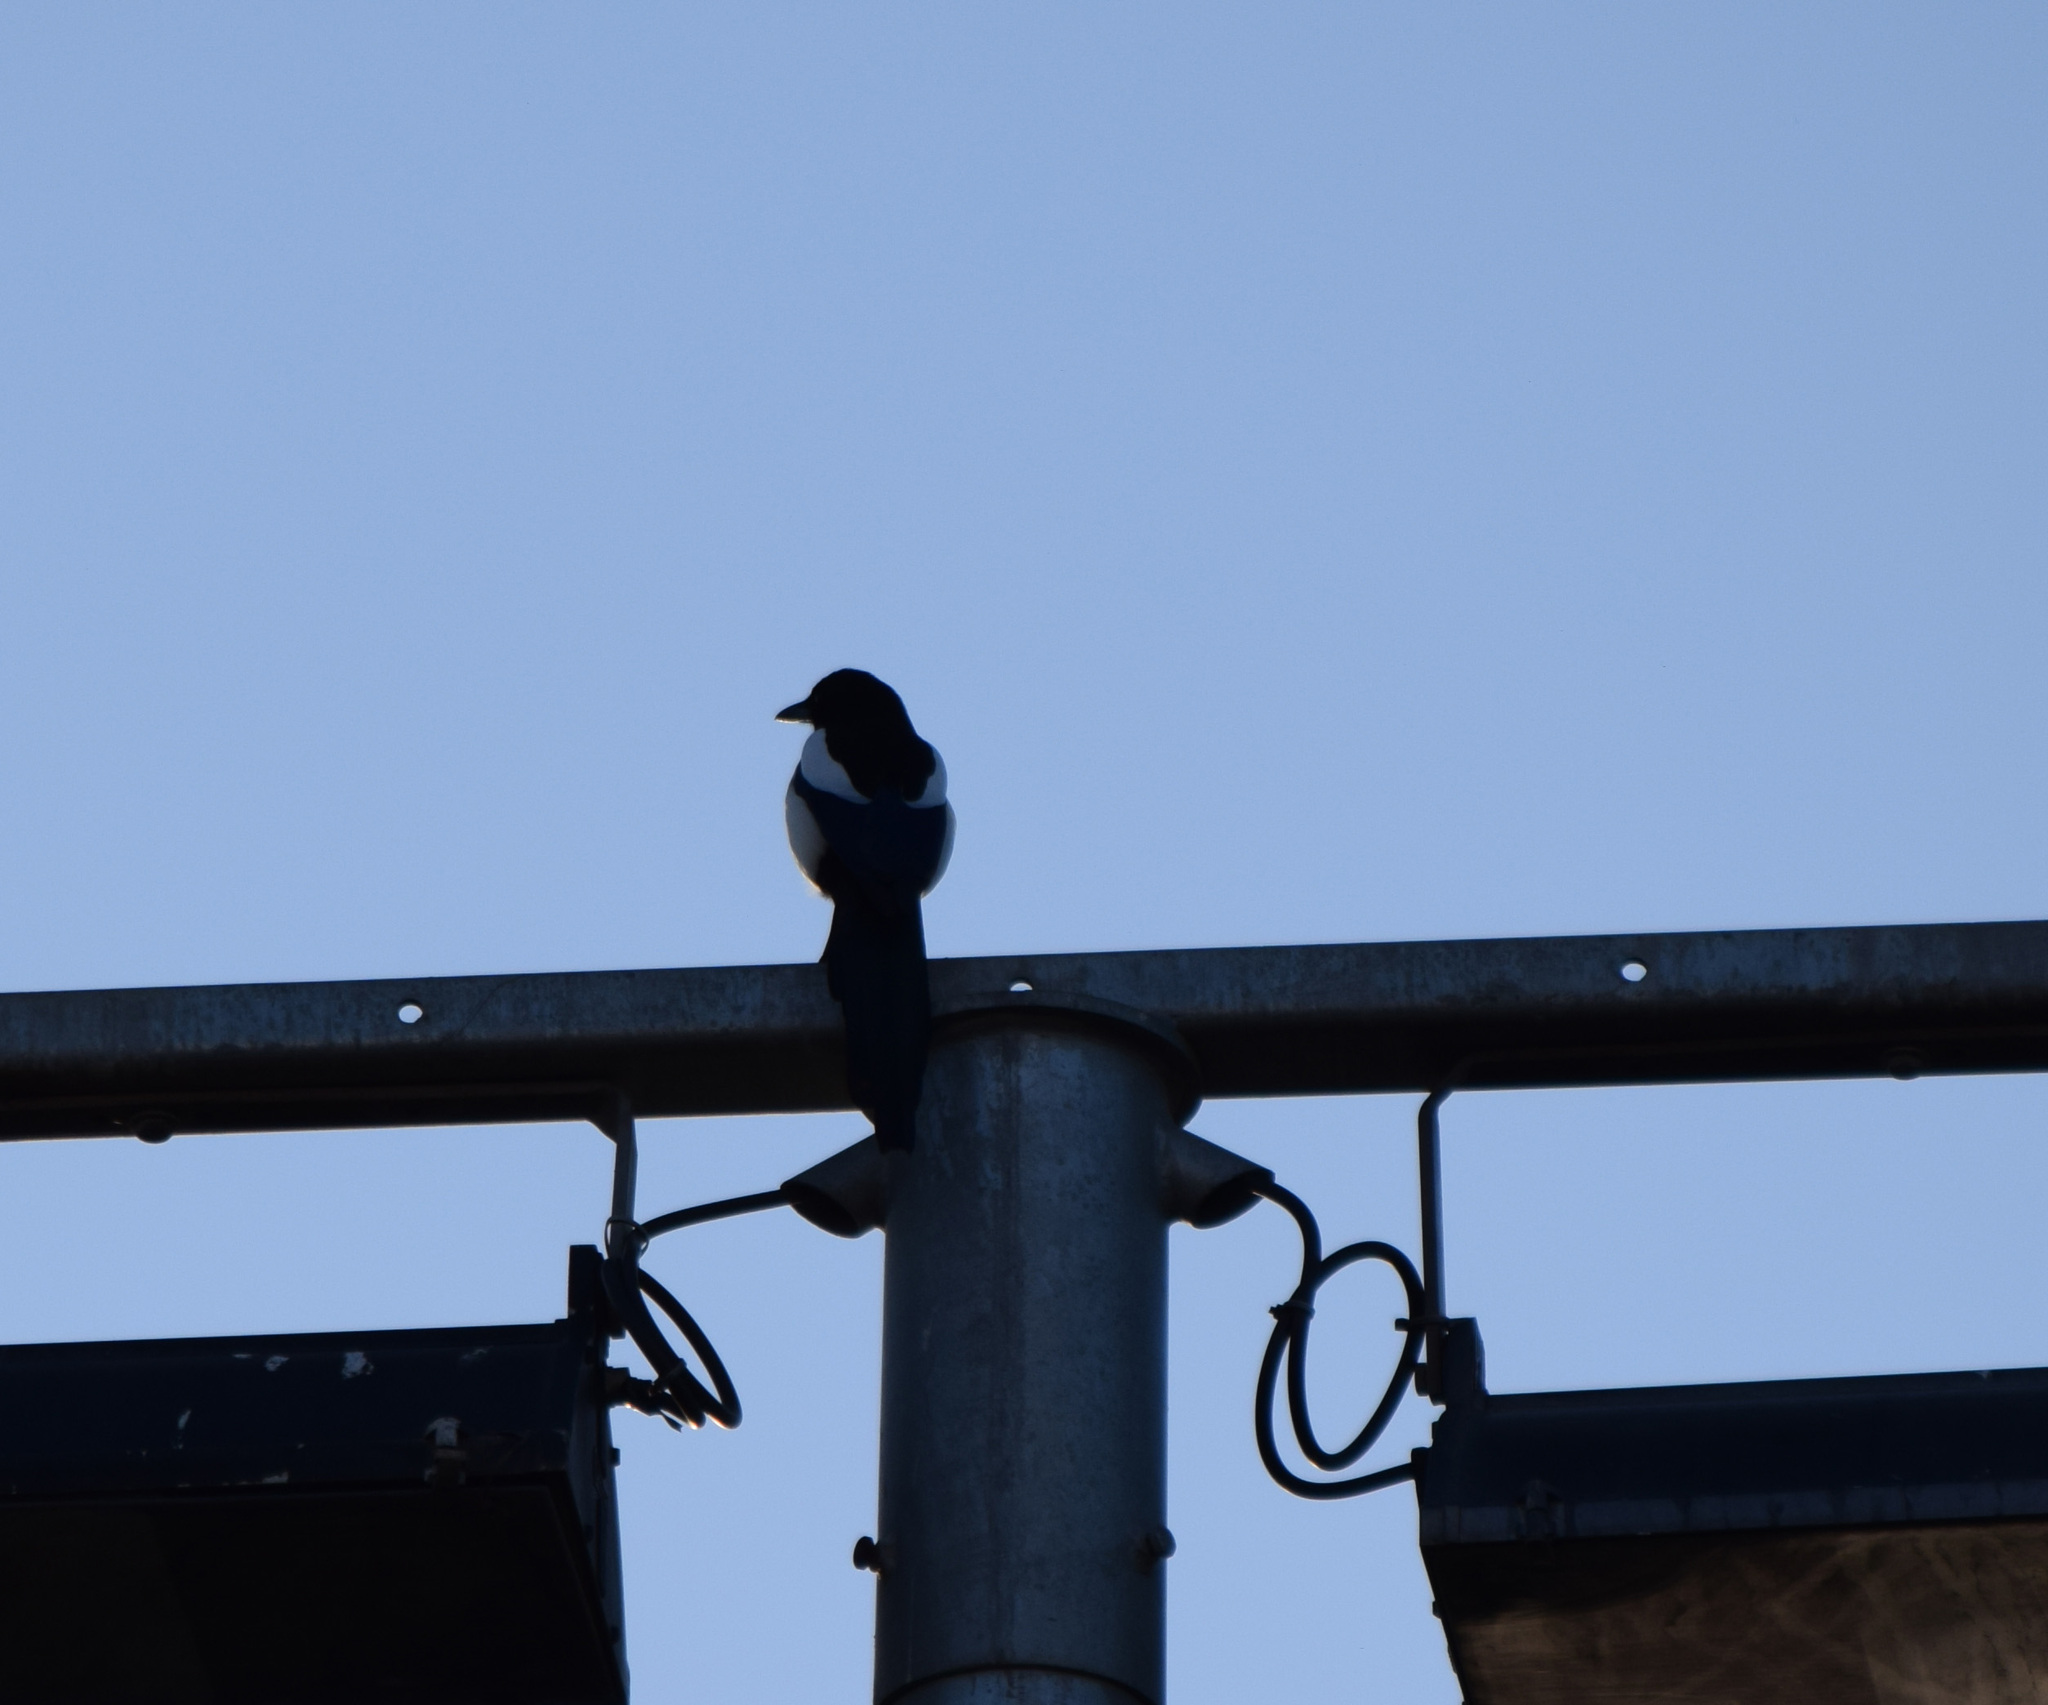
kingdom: Animalia
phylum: Chordata
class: Aves
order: Passeriformes
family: Corvidae
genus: Pica
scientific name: Pica pica
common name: Eurasian magpie
